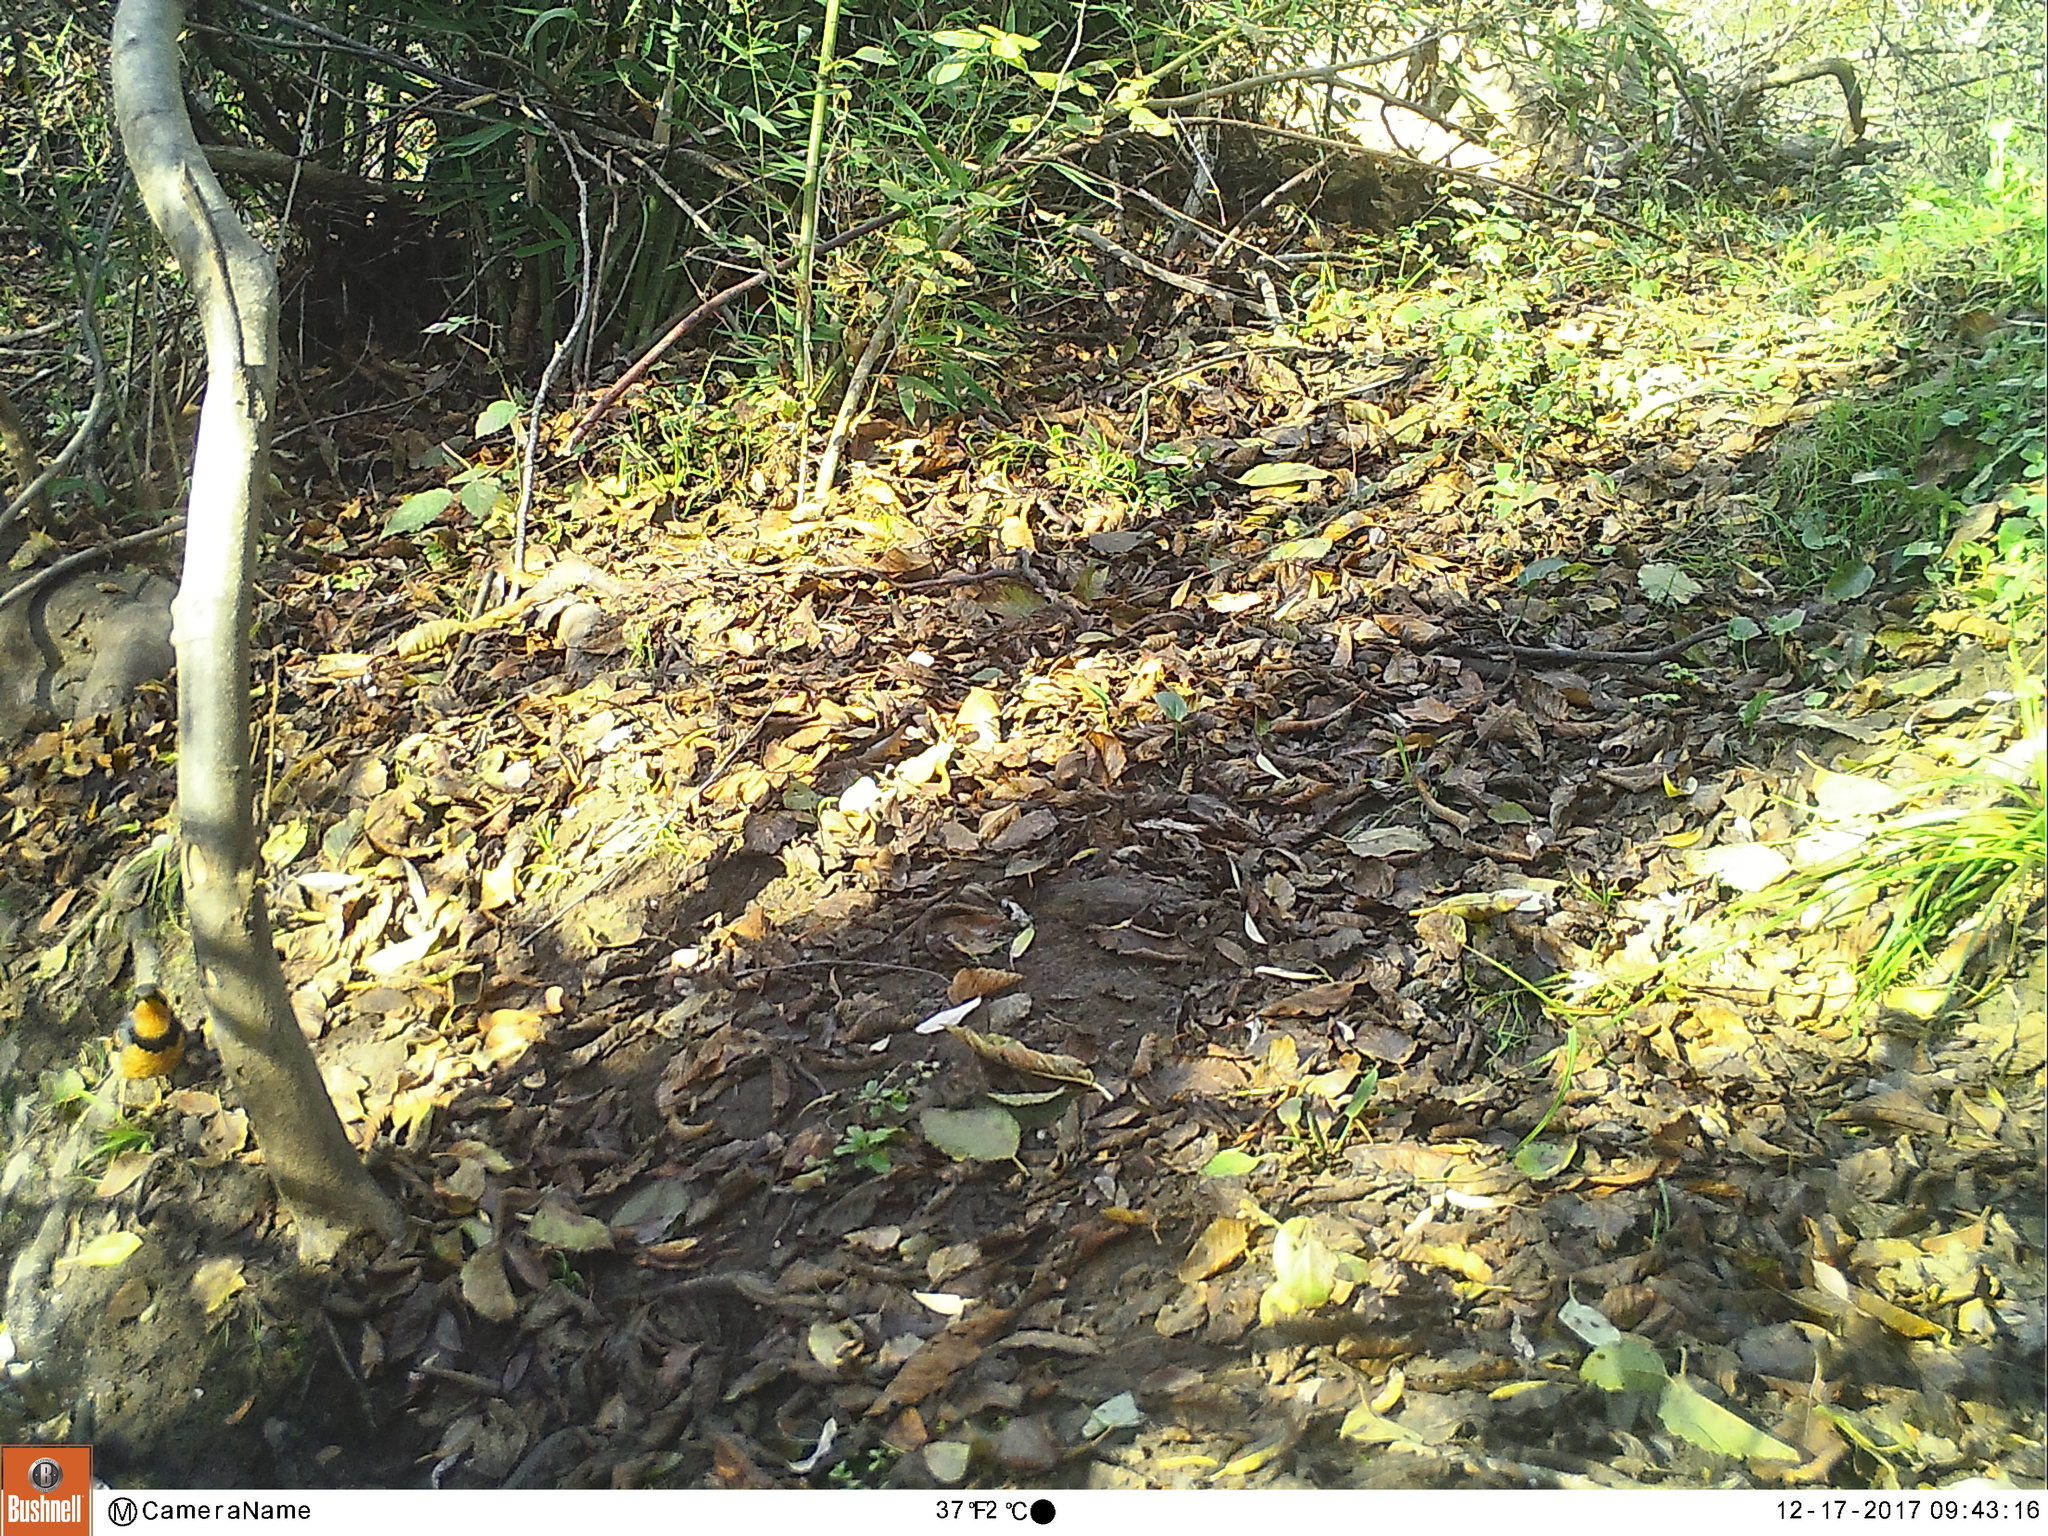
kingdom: Animalia
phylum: Chordata
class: Aves
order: Passeriformes
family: Turdidae
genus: Ixoreus
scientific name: Ixoreus naevius
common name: Varied thrush
